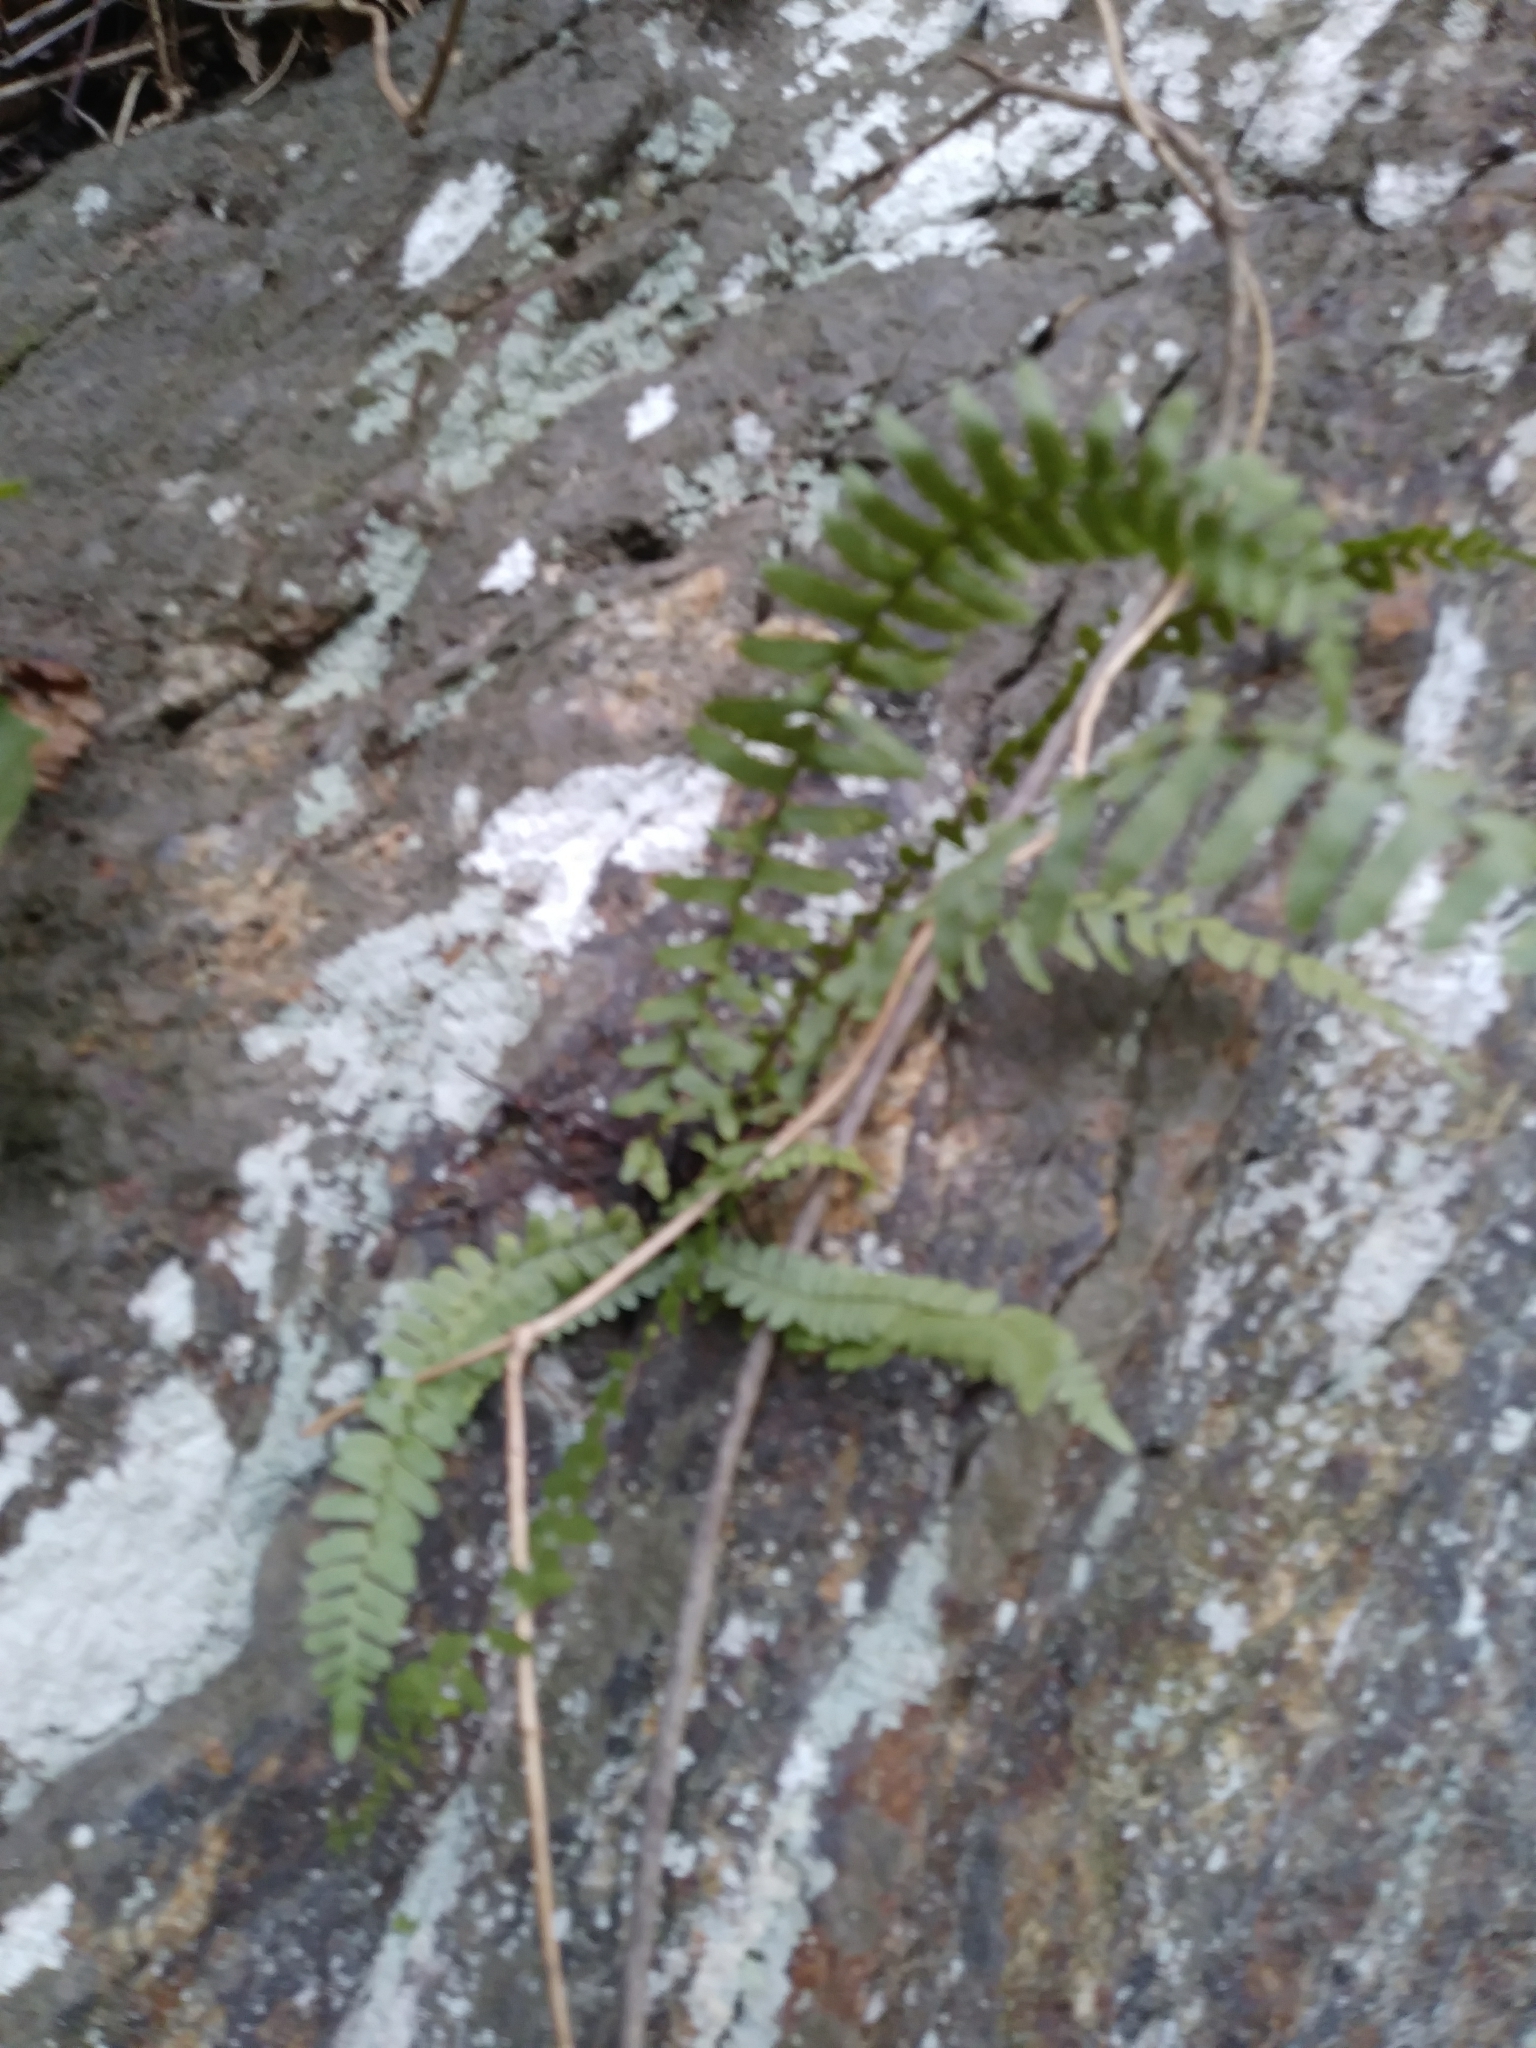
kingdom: Plantae
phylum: Tracheophyta
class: Polypodiopsida
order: Polypodiales
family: Aspleniaceae
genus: Asplenium
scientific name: Asplenium platyneuron
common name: Ebony spleenwort
